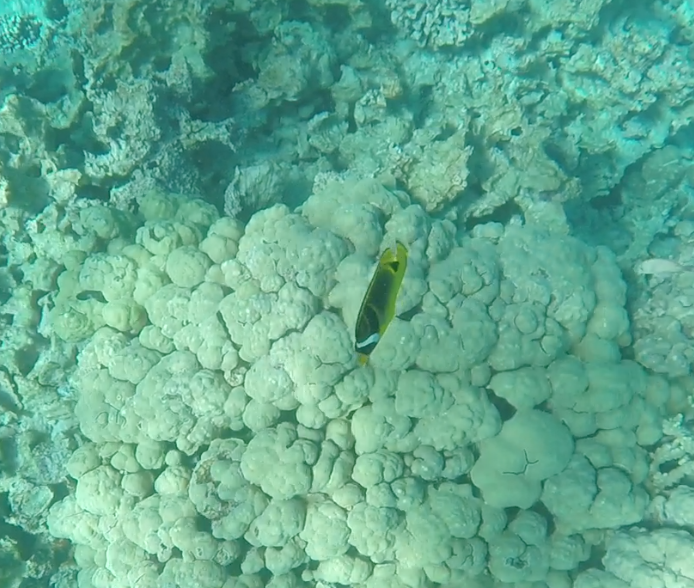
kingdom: Animalia
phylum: Chordata
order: Perciformes
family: Chaetodontidae
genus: Chaetodon
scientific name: Chaetodon lunula
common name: Raccoon butterflyfish
